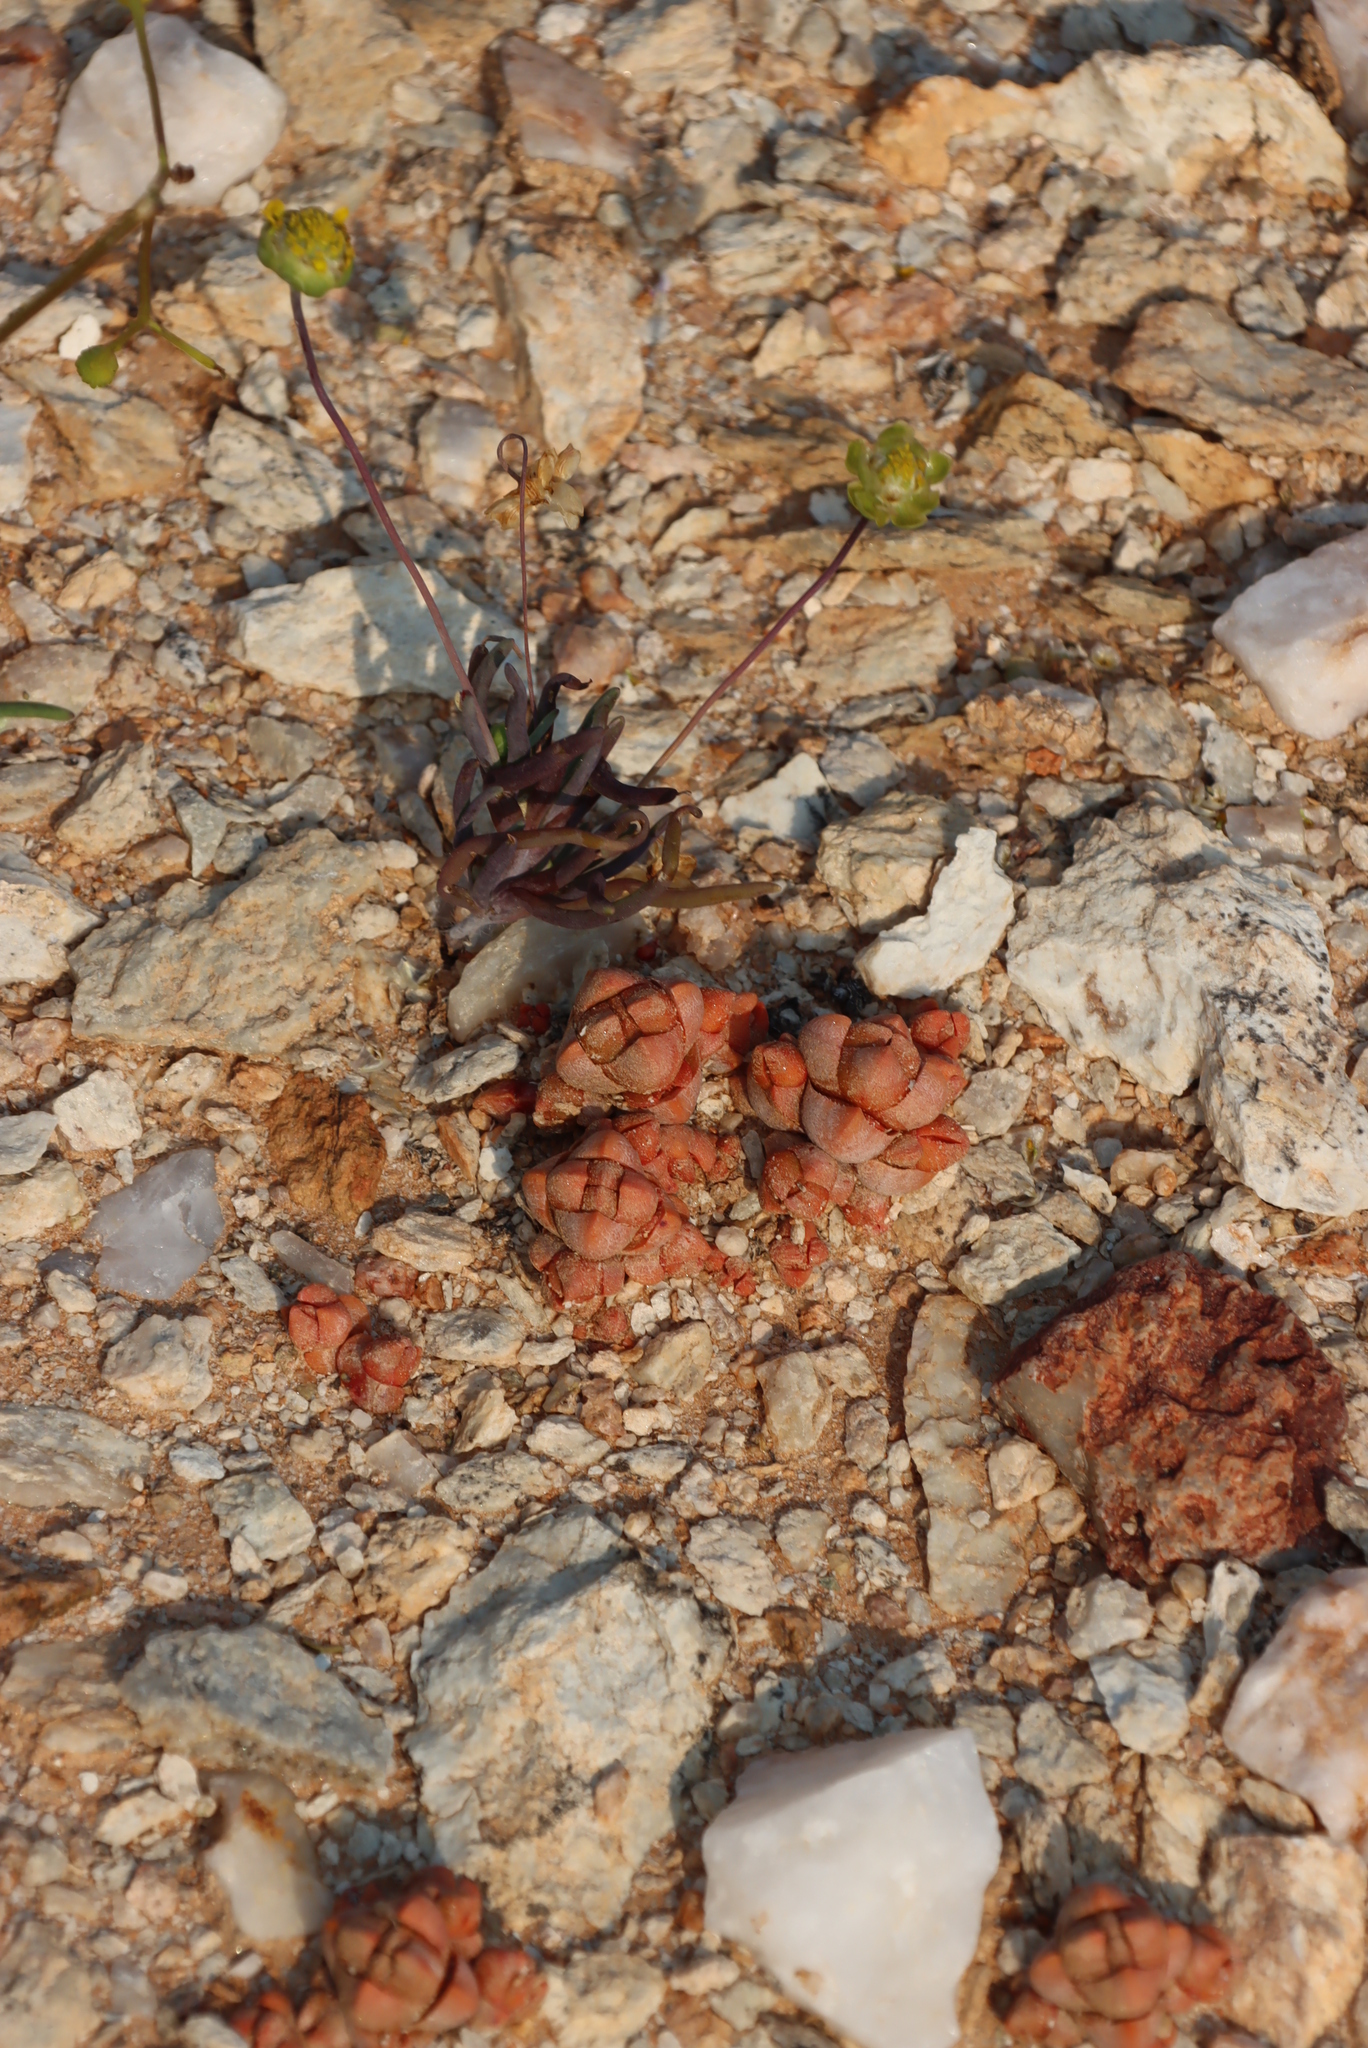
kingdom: Plantae
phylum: Tracheophyta
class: Magnoliopsida
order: Saxifragales
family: Crassulaceae
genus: Crassula
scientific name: Crassula columnaris
